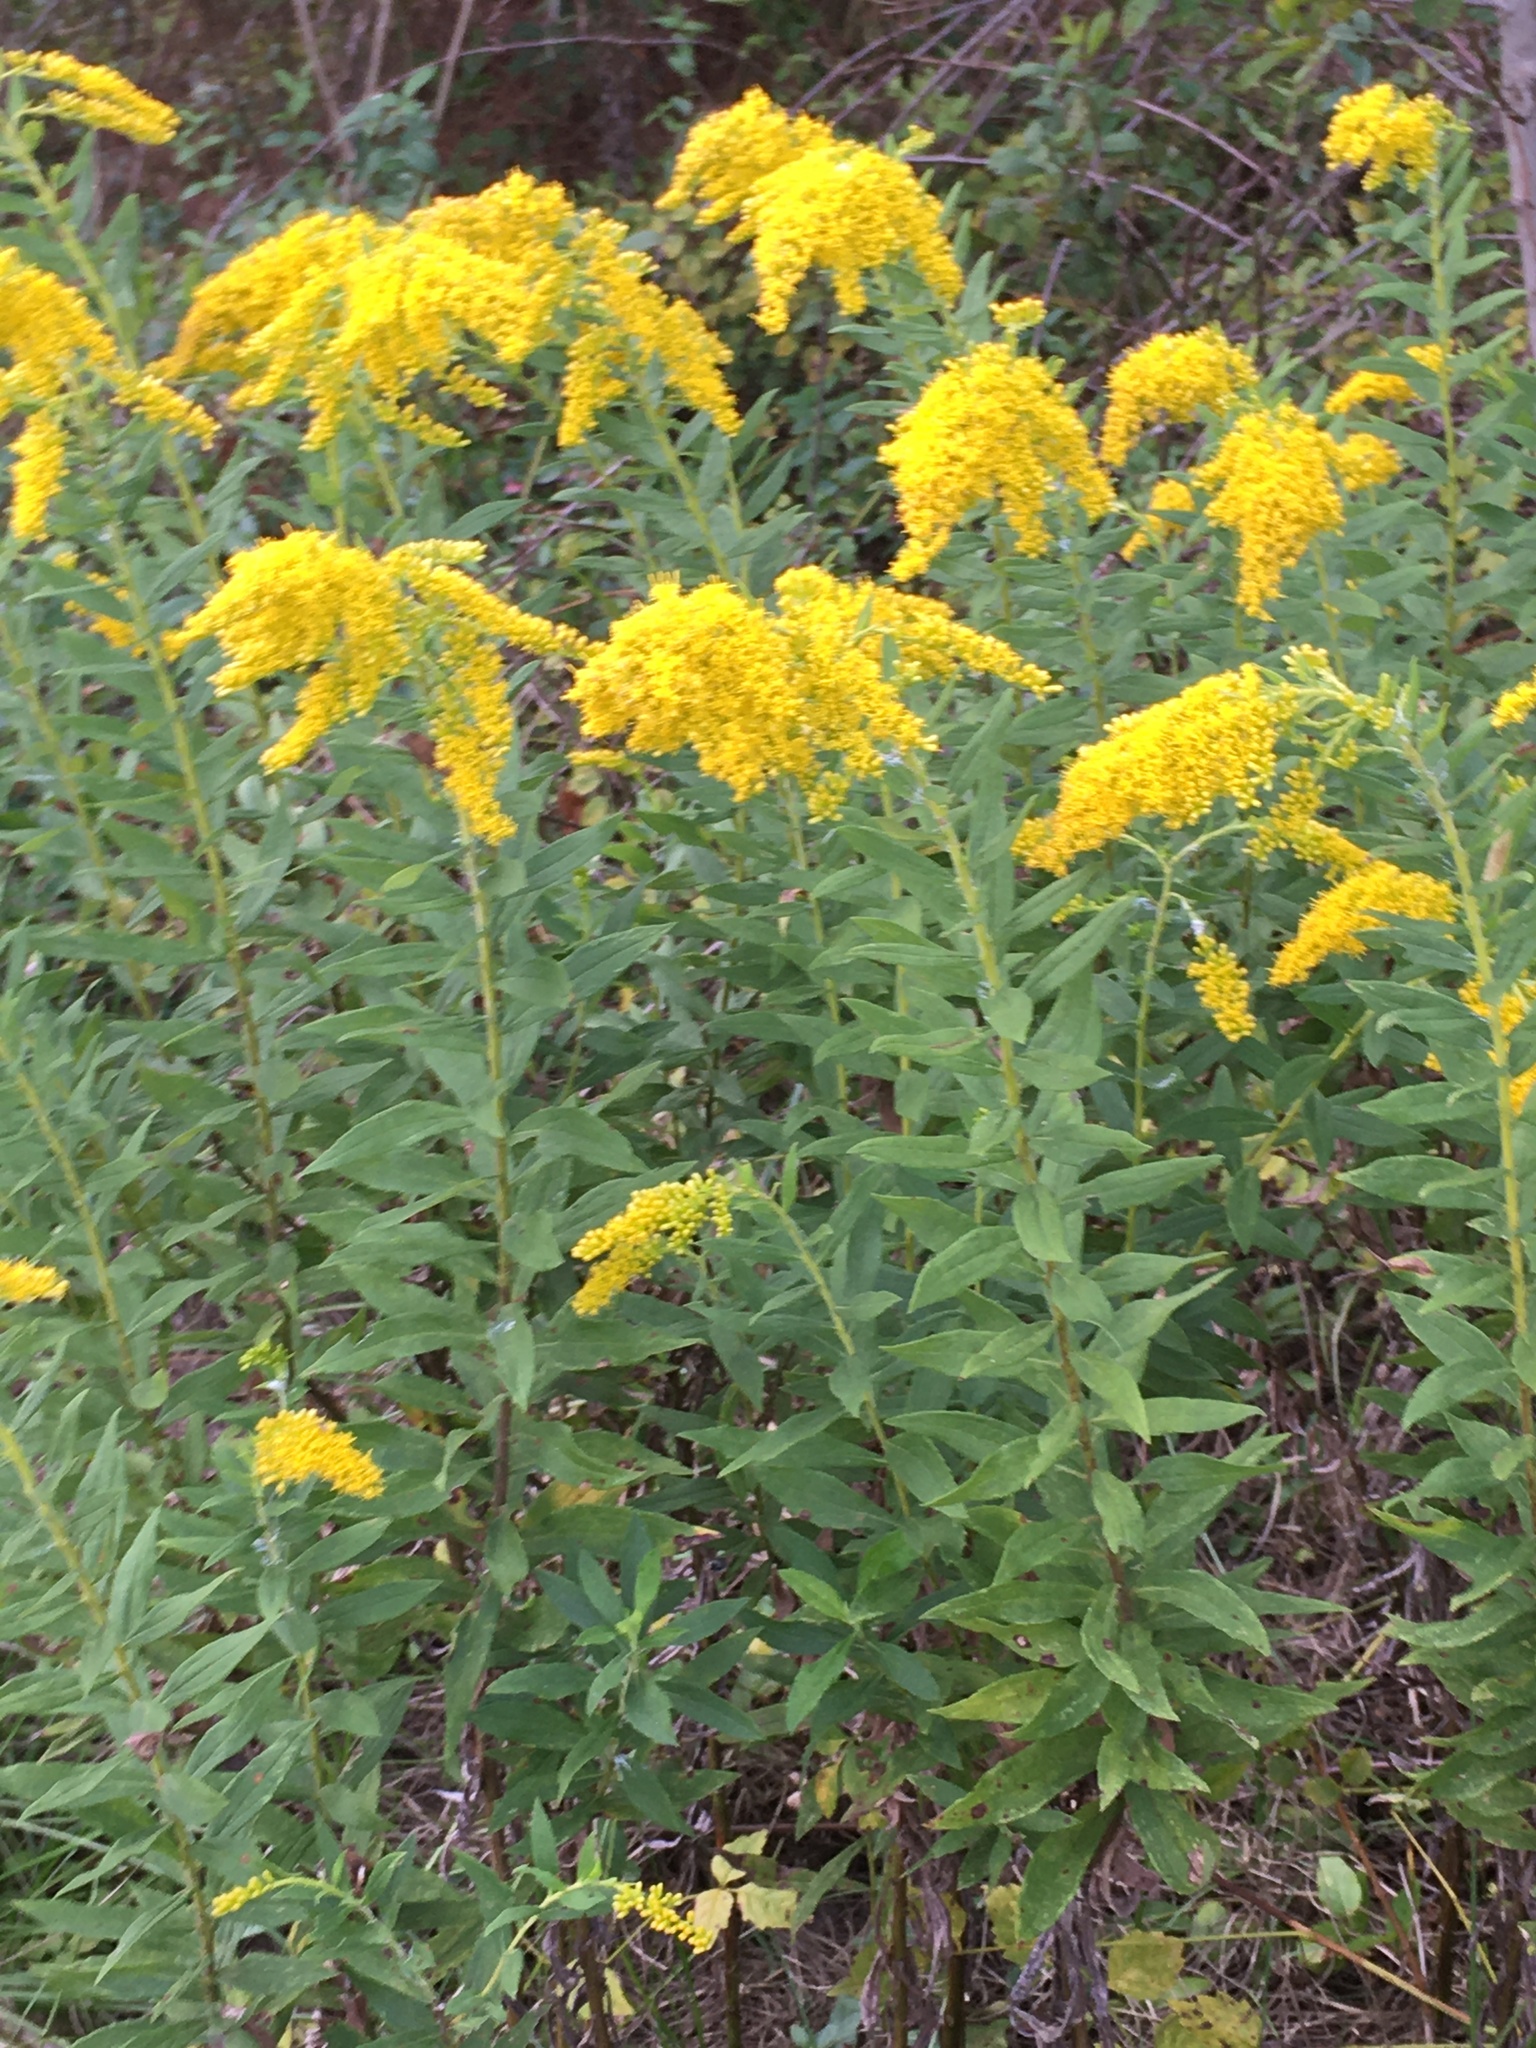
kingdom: Plantae
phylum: Tracheophyta
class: Magnoliopsida
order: Asterales
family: Asteraceae
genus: Solidago
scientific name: Solidago altissima
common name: Late goldenrod
